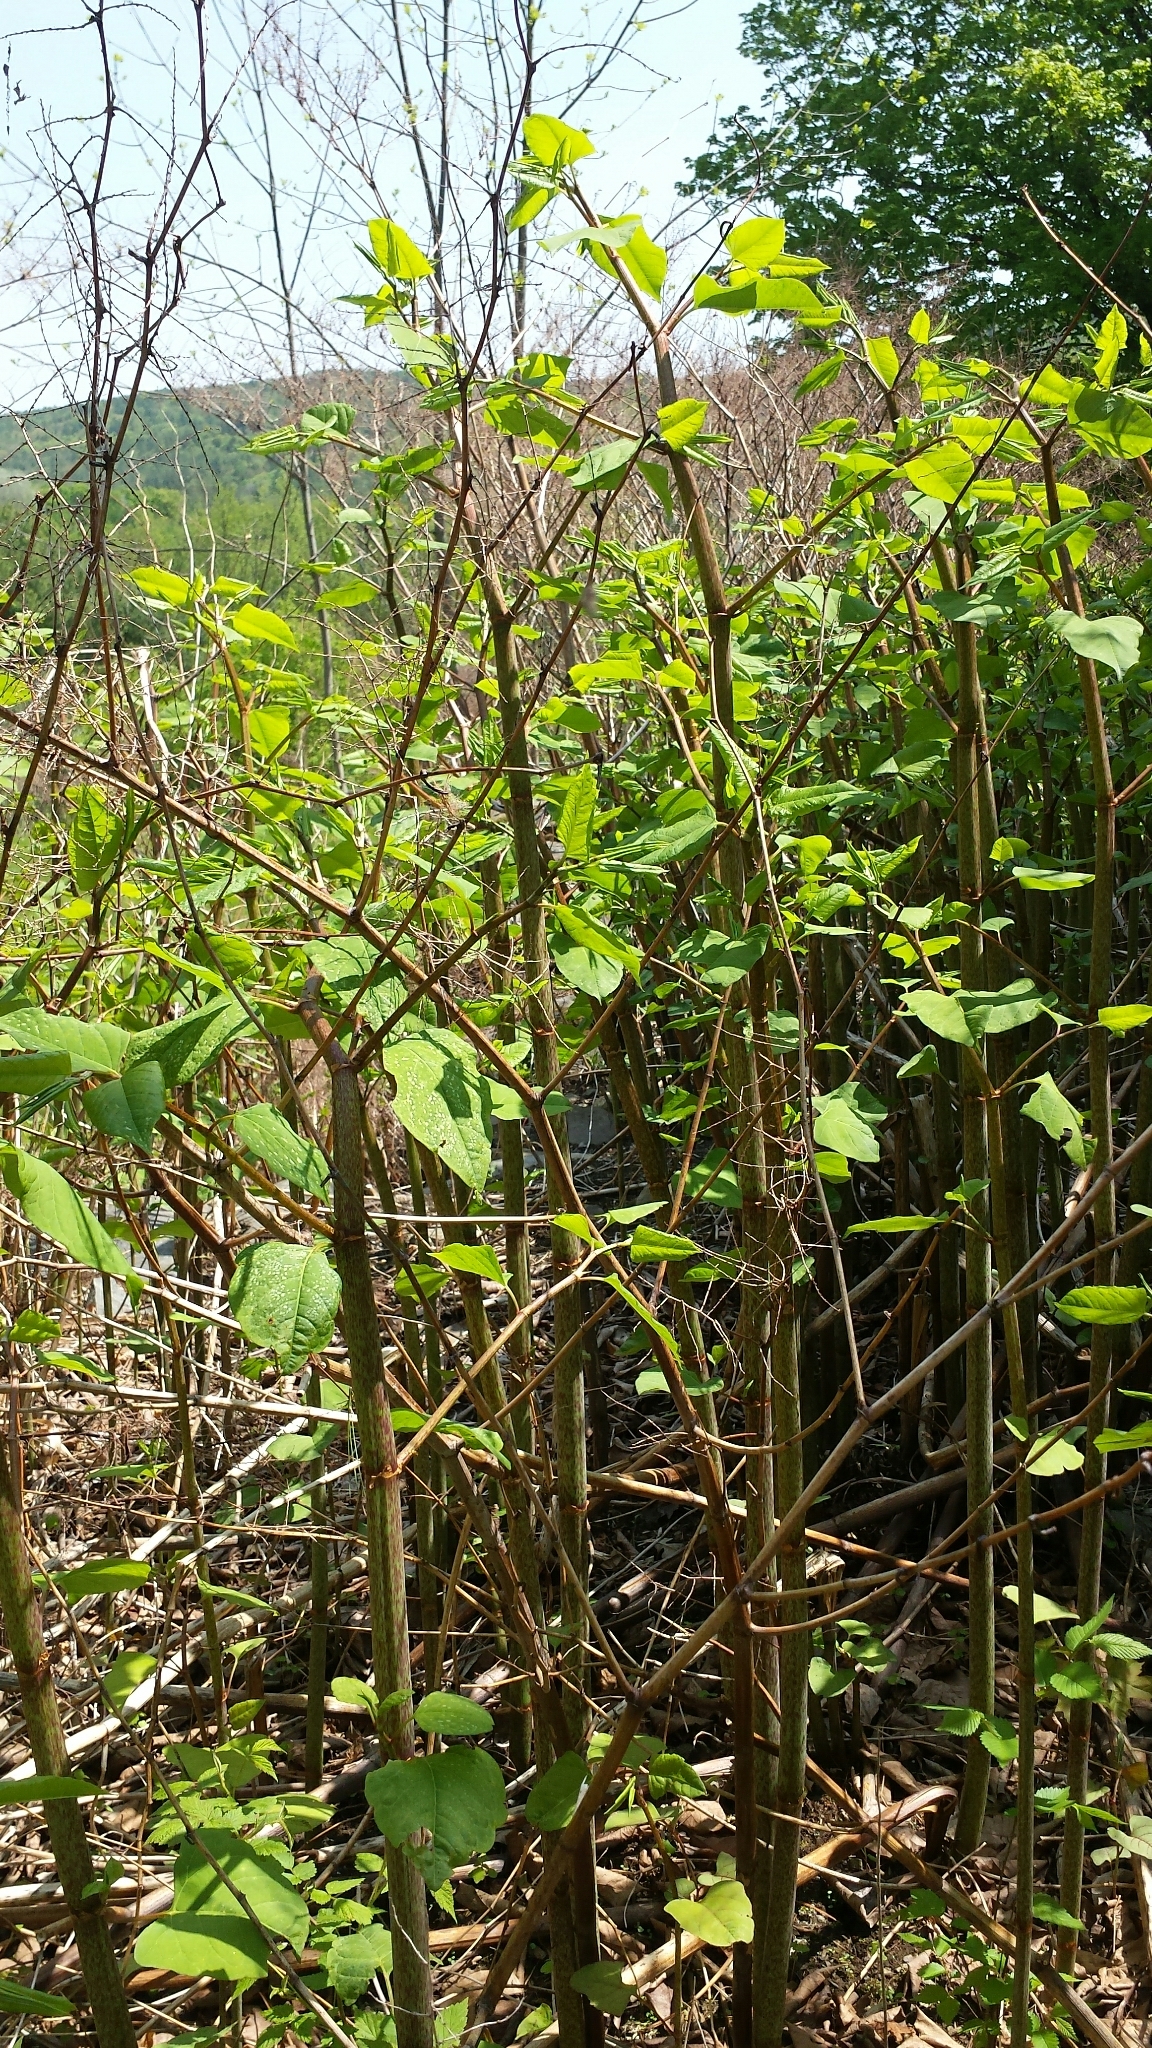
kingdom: Plantae
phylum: Tracheophyta
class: Magnoliopsida
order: Caryophyllales
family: Polygonaceae
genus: Reynoutria
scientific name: Reynoutria japonica
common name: Japanese knotweed
